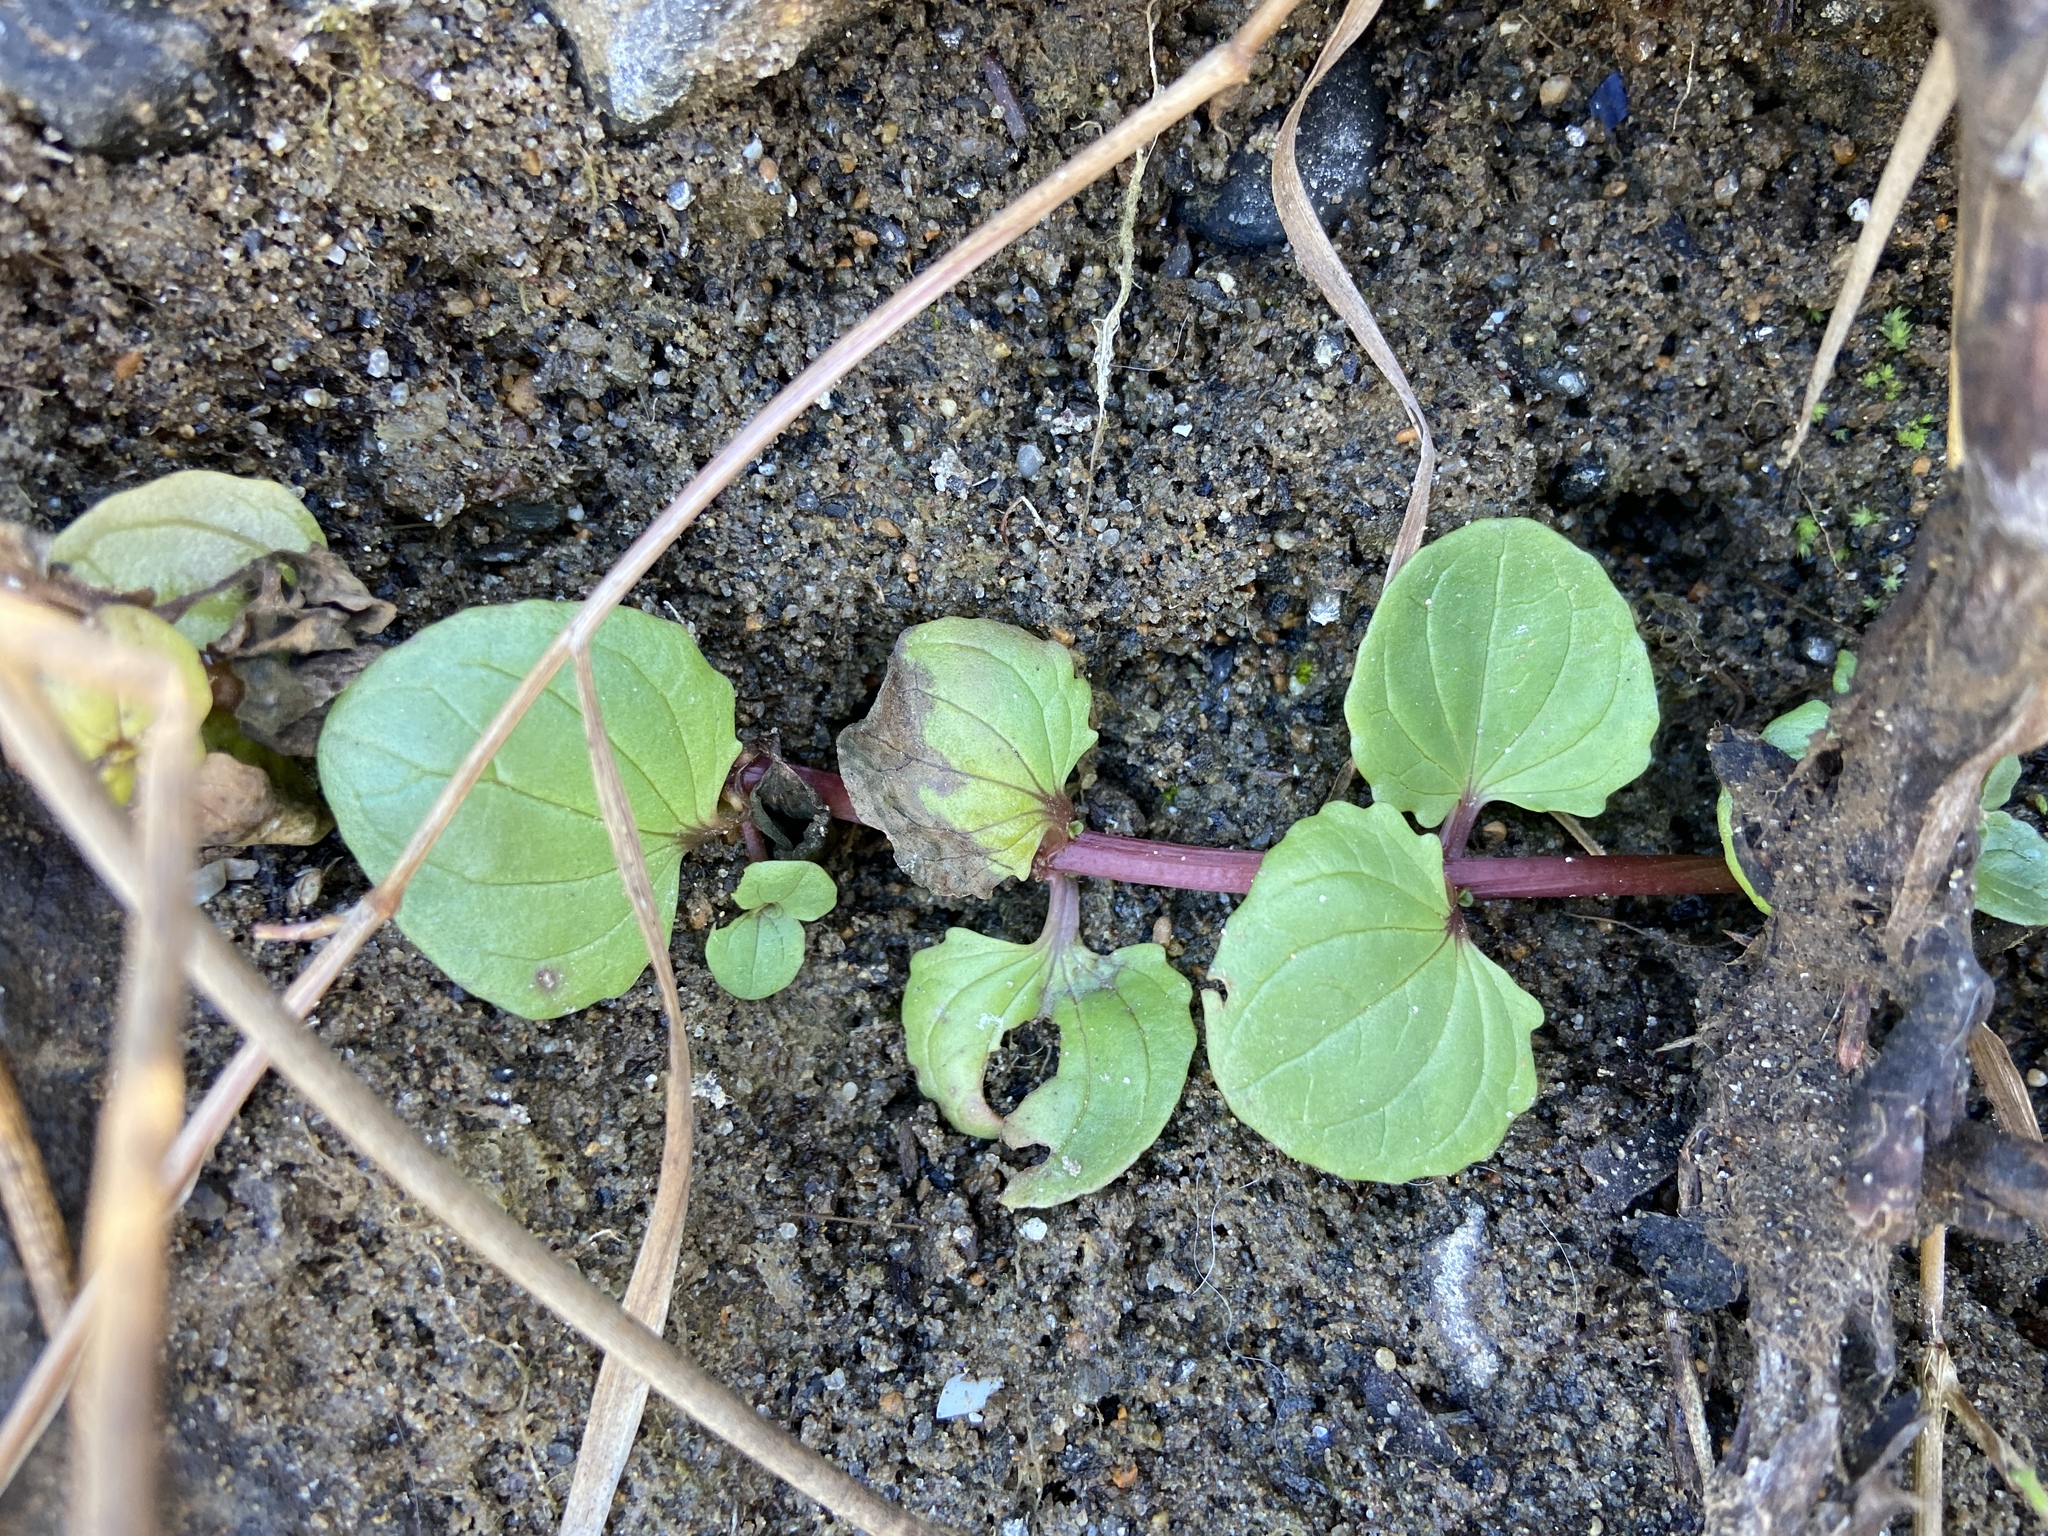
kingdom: Plantae
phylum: Tracheophyta
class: Magnoliopsida
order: Lamiales
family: Phrymaceae
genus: Erythranthe
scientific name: Erythranthe grandis
